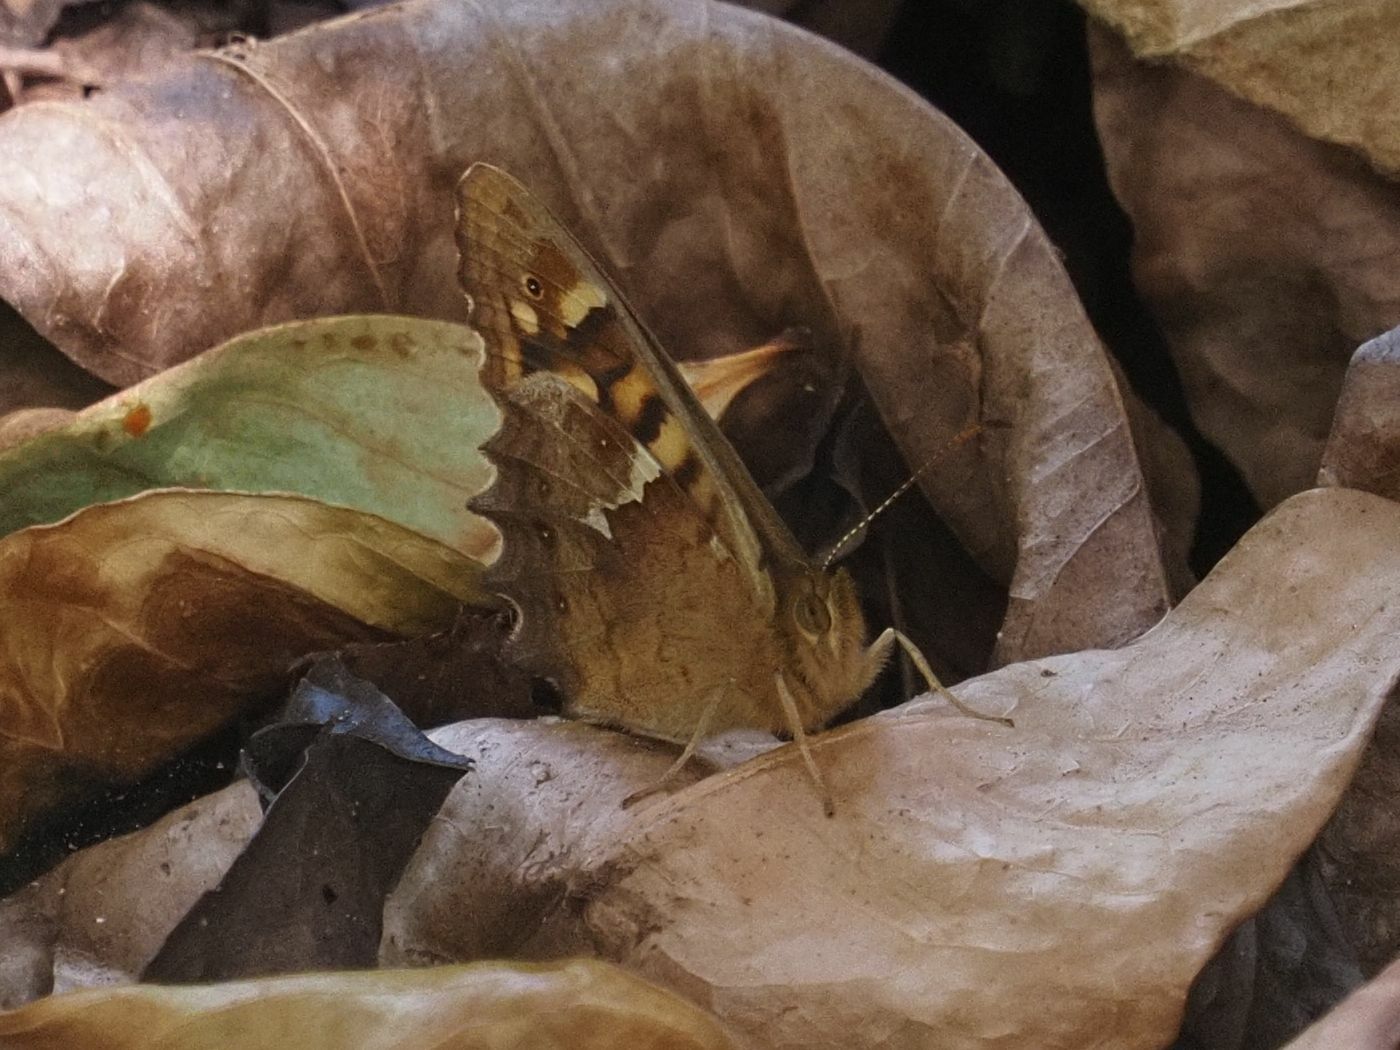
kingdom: Animalia
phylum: Arthropoda
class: Insecta
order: Lepidoptera
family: Nymphalidae
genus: Pararge
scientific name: Pararge aegeria
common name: Speckled wood
